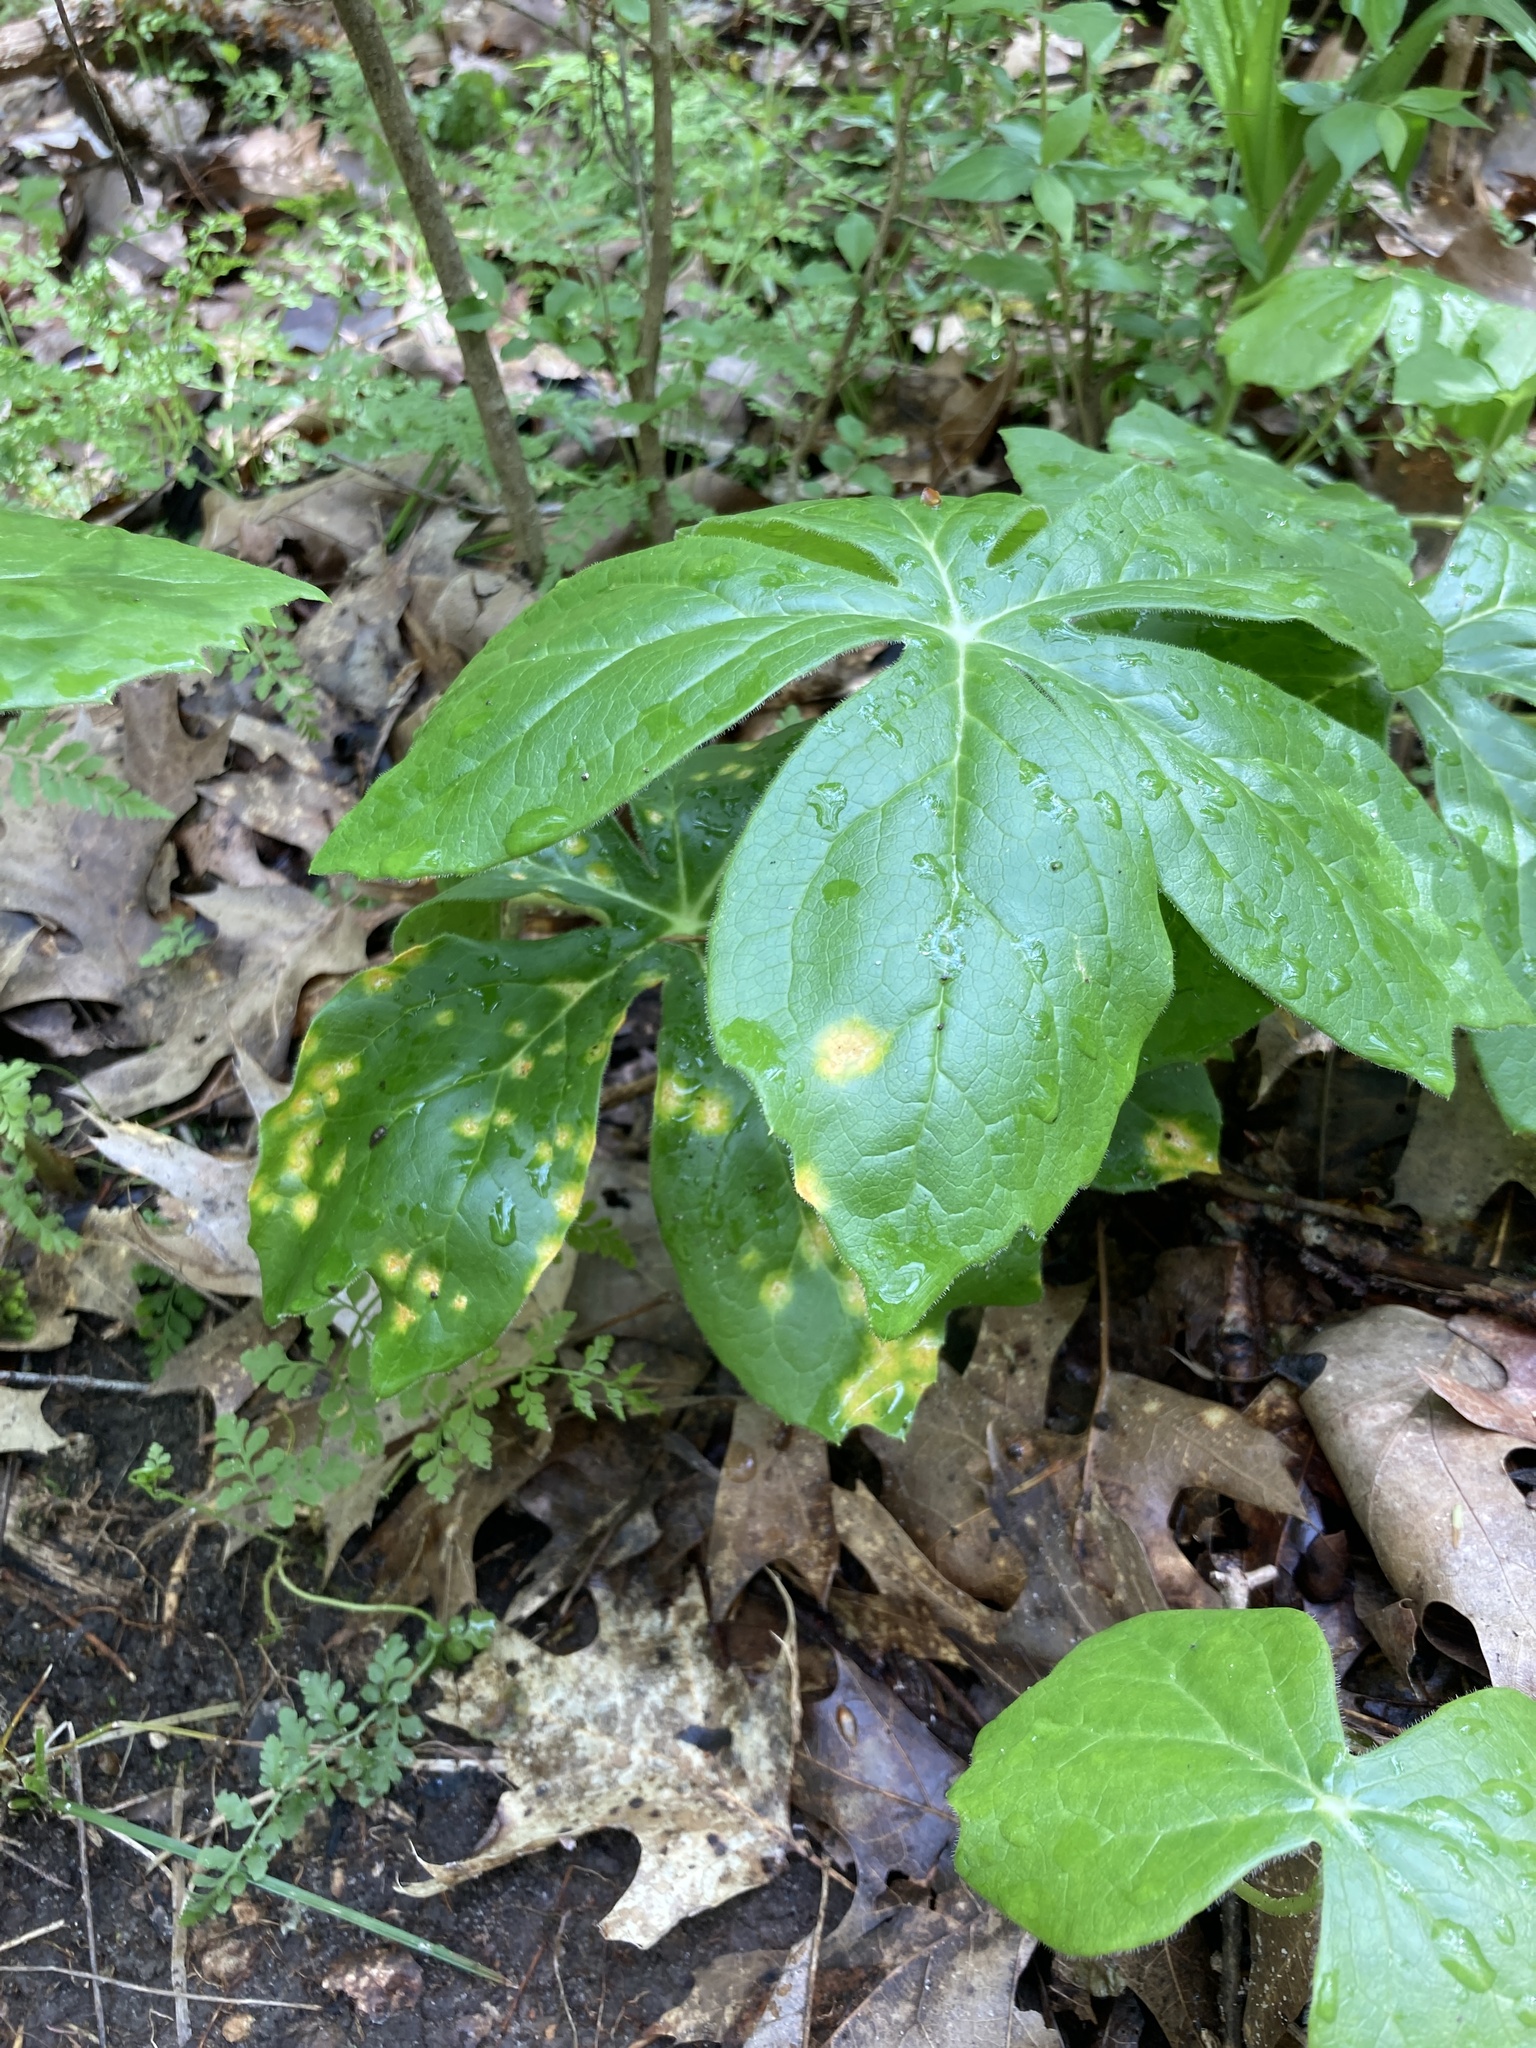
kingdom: Fungi
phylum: Basidiomycota
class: Pucciniomycetes
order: Pucciniales
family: Pucciniaceae
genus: Puccinia
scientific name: Puccinia podophylli
